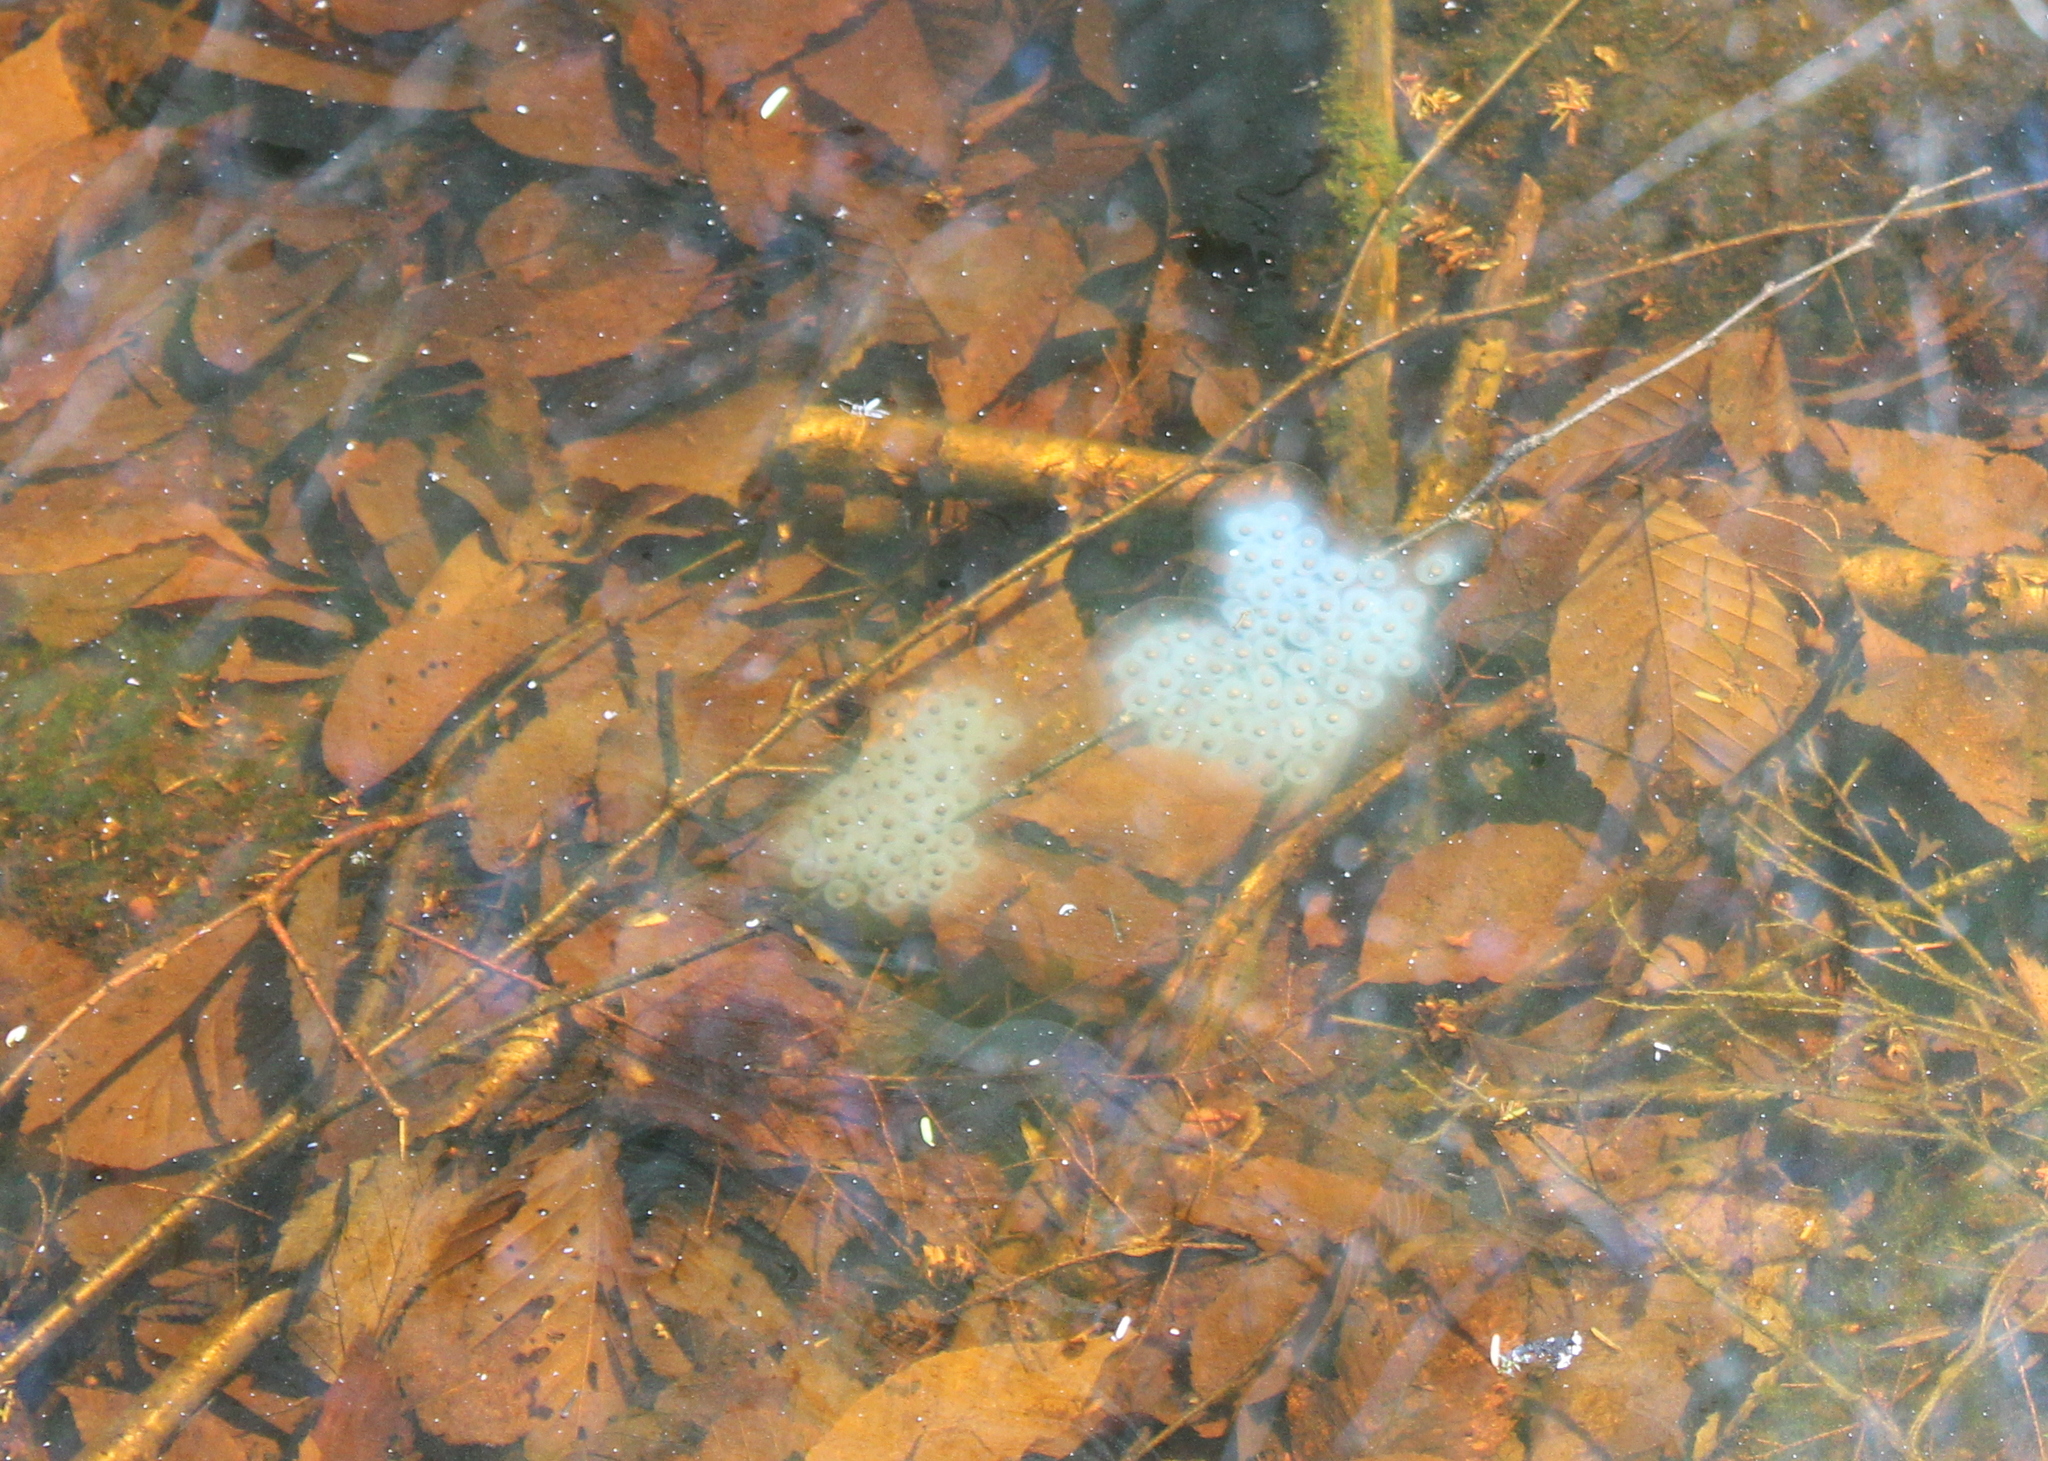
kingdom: Animalia
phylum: Chordata
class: Amphibia
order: Caudata
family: Ambystomatidae
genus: Ambystoma
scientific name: Ambystoma maculatum
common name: Spotted salamander
